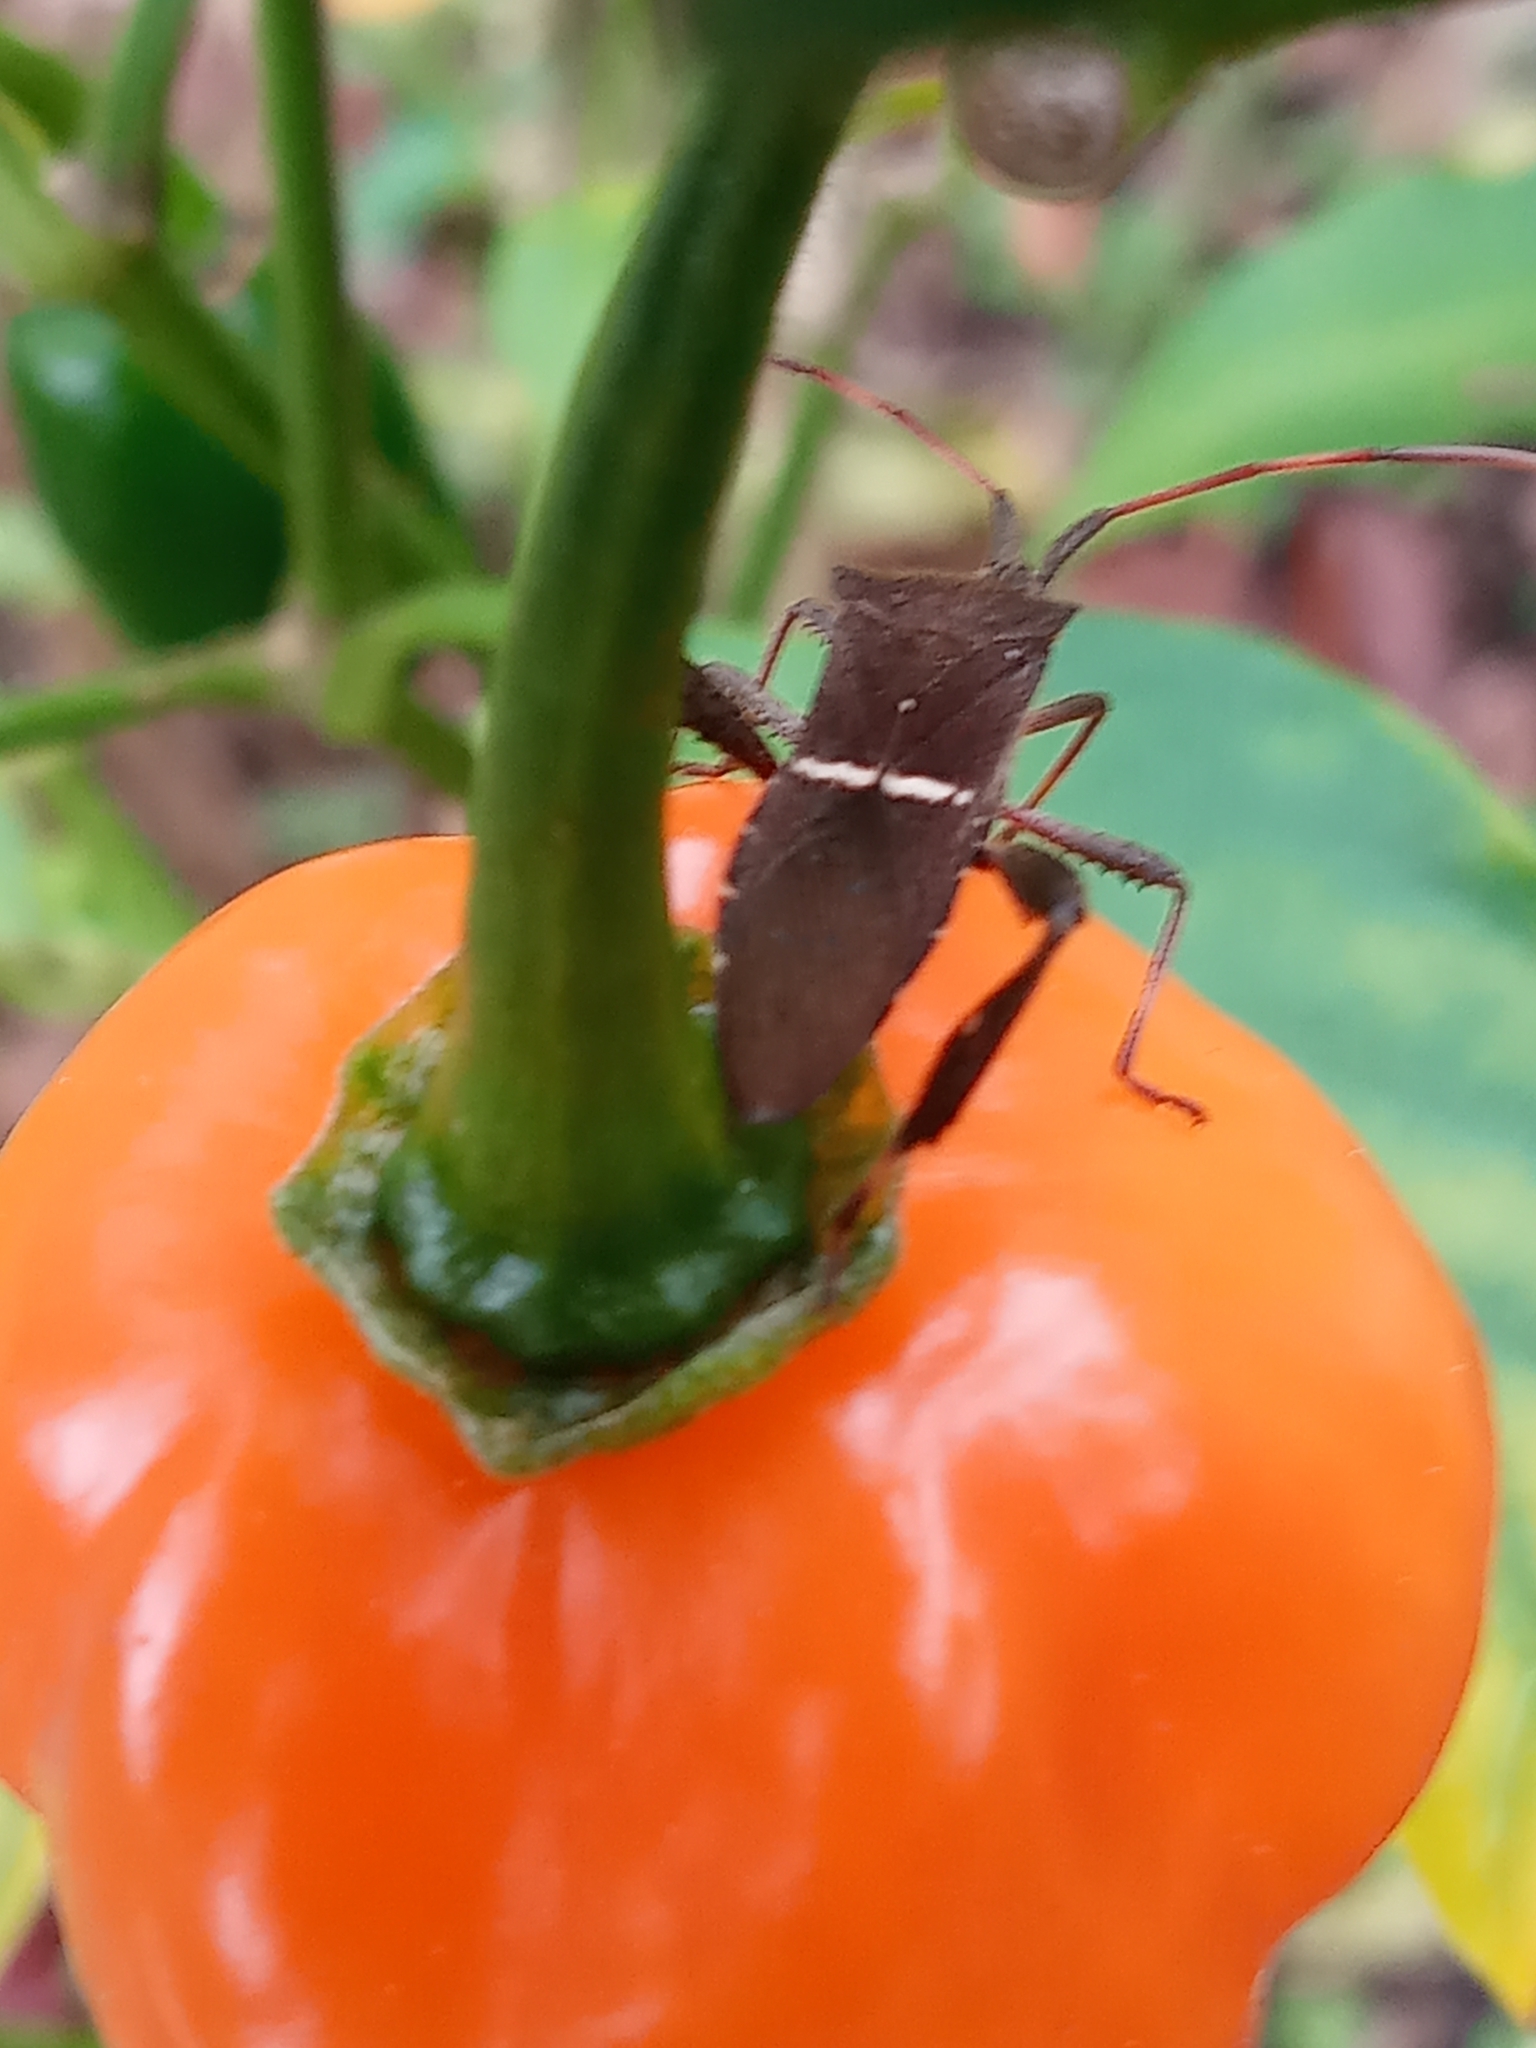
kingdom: Animalia
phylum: Arthropoda
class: Insecta
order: Hemiptera
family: Coreidae
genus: Leptoglossus
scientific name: Leptoglossus phyllopus
